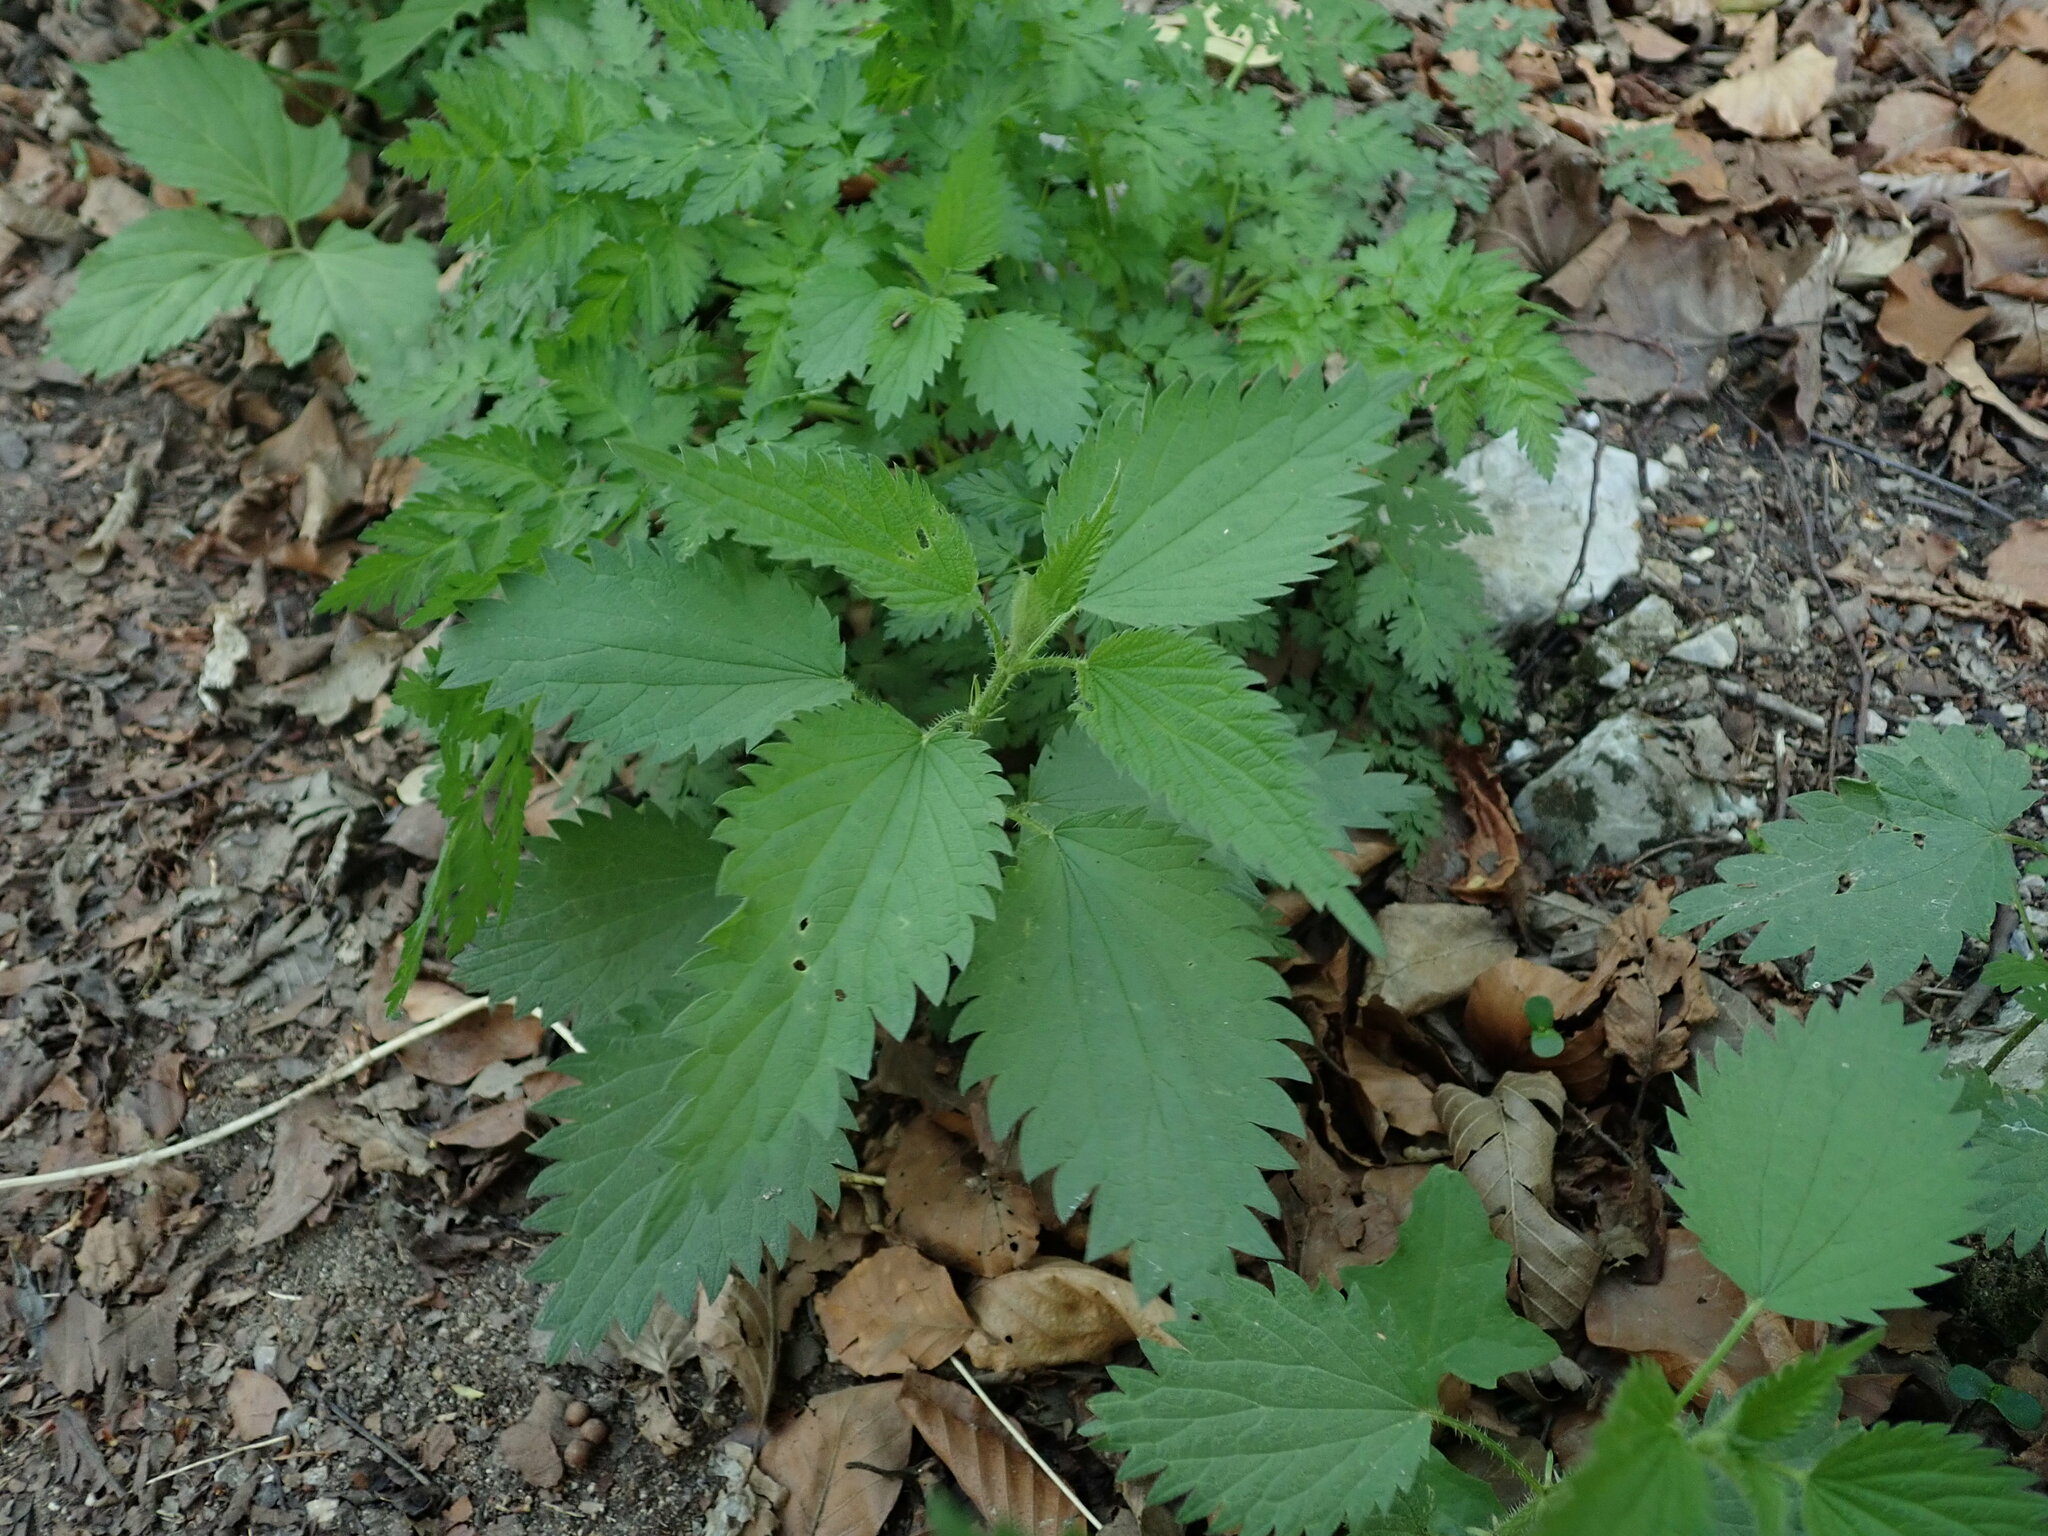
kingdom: Plantae
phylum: Tracheophyta
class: Magnoliopsida
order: Rosales
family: Urticaceae
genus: Urtica
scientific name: Urtica dioica
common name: Common nettle
